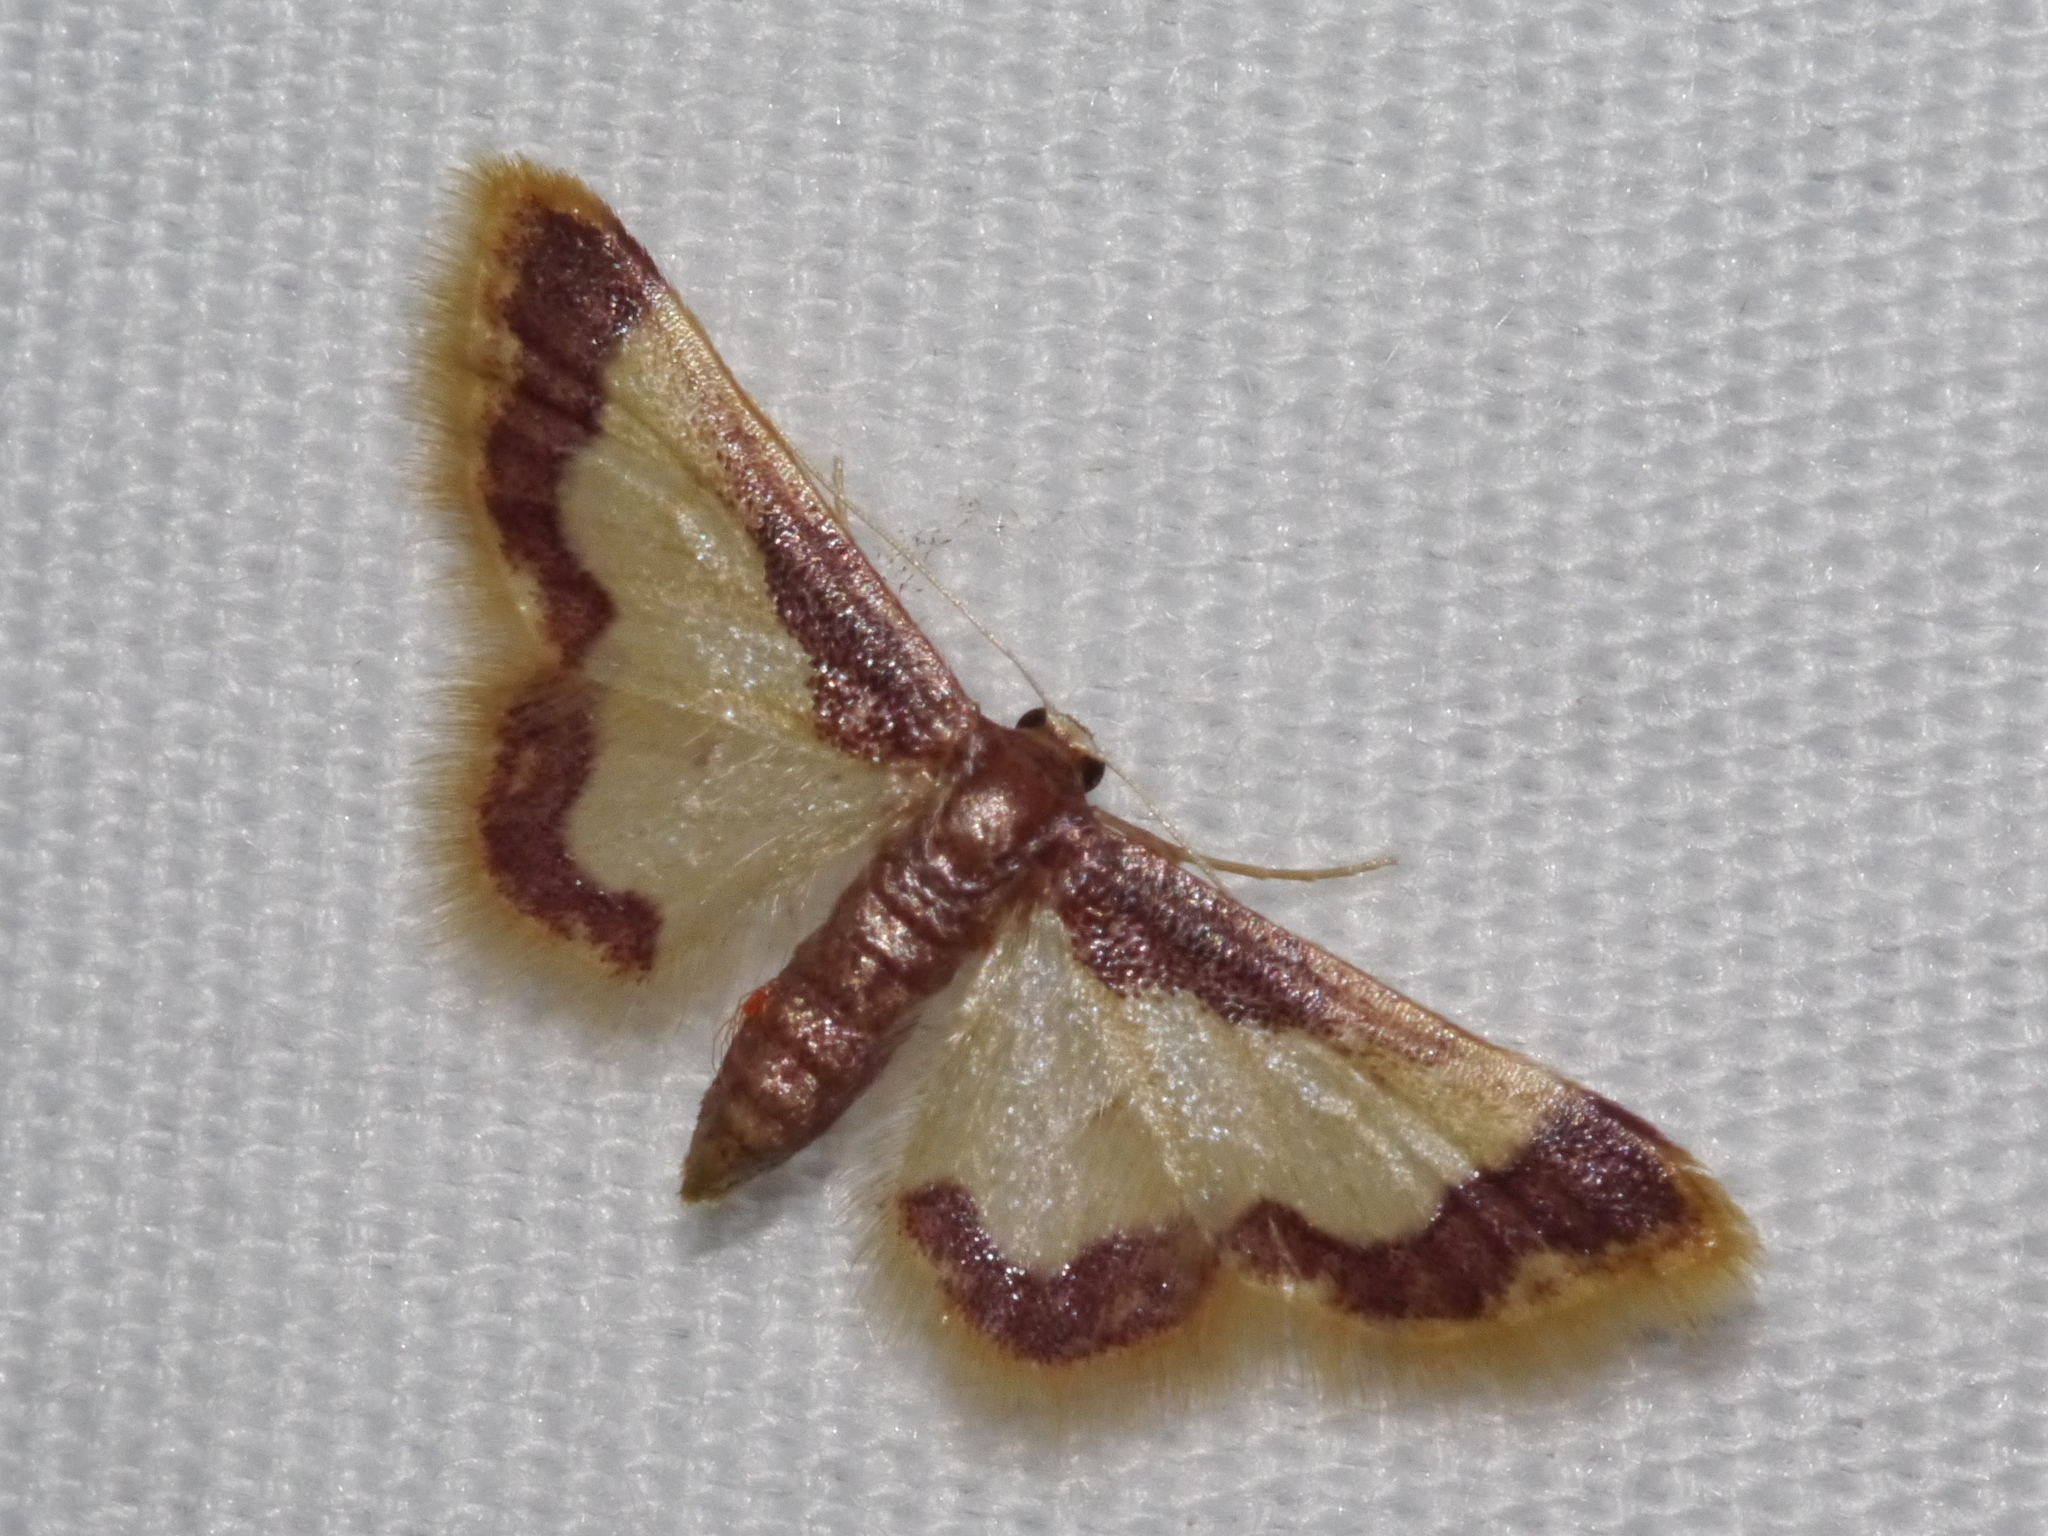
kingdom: Animalia
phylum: Arthropoda
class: Insecta
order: Lepidoptera
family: Geometridae
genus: Idaea
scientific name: Idaea basinta
